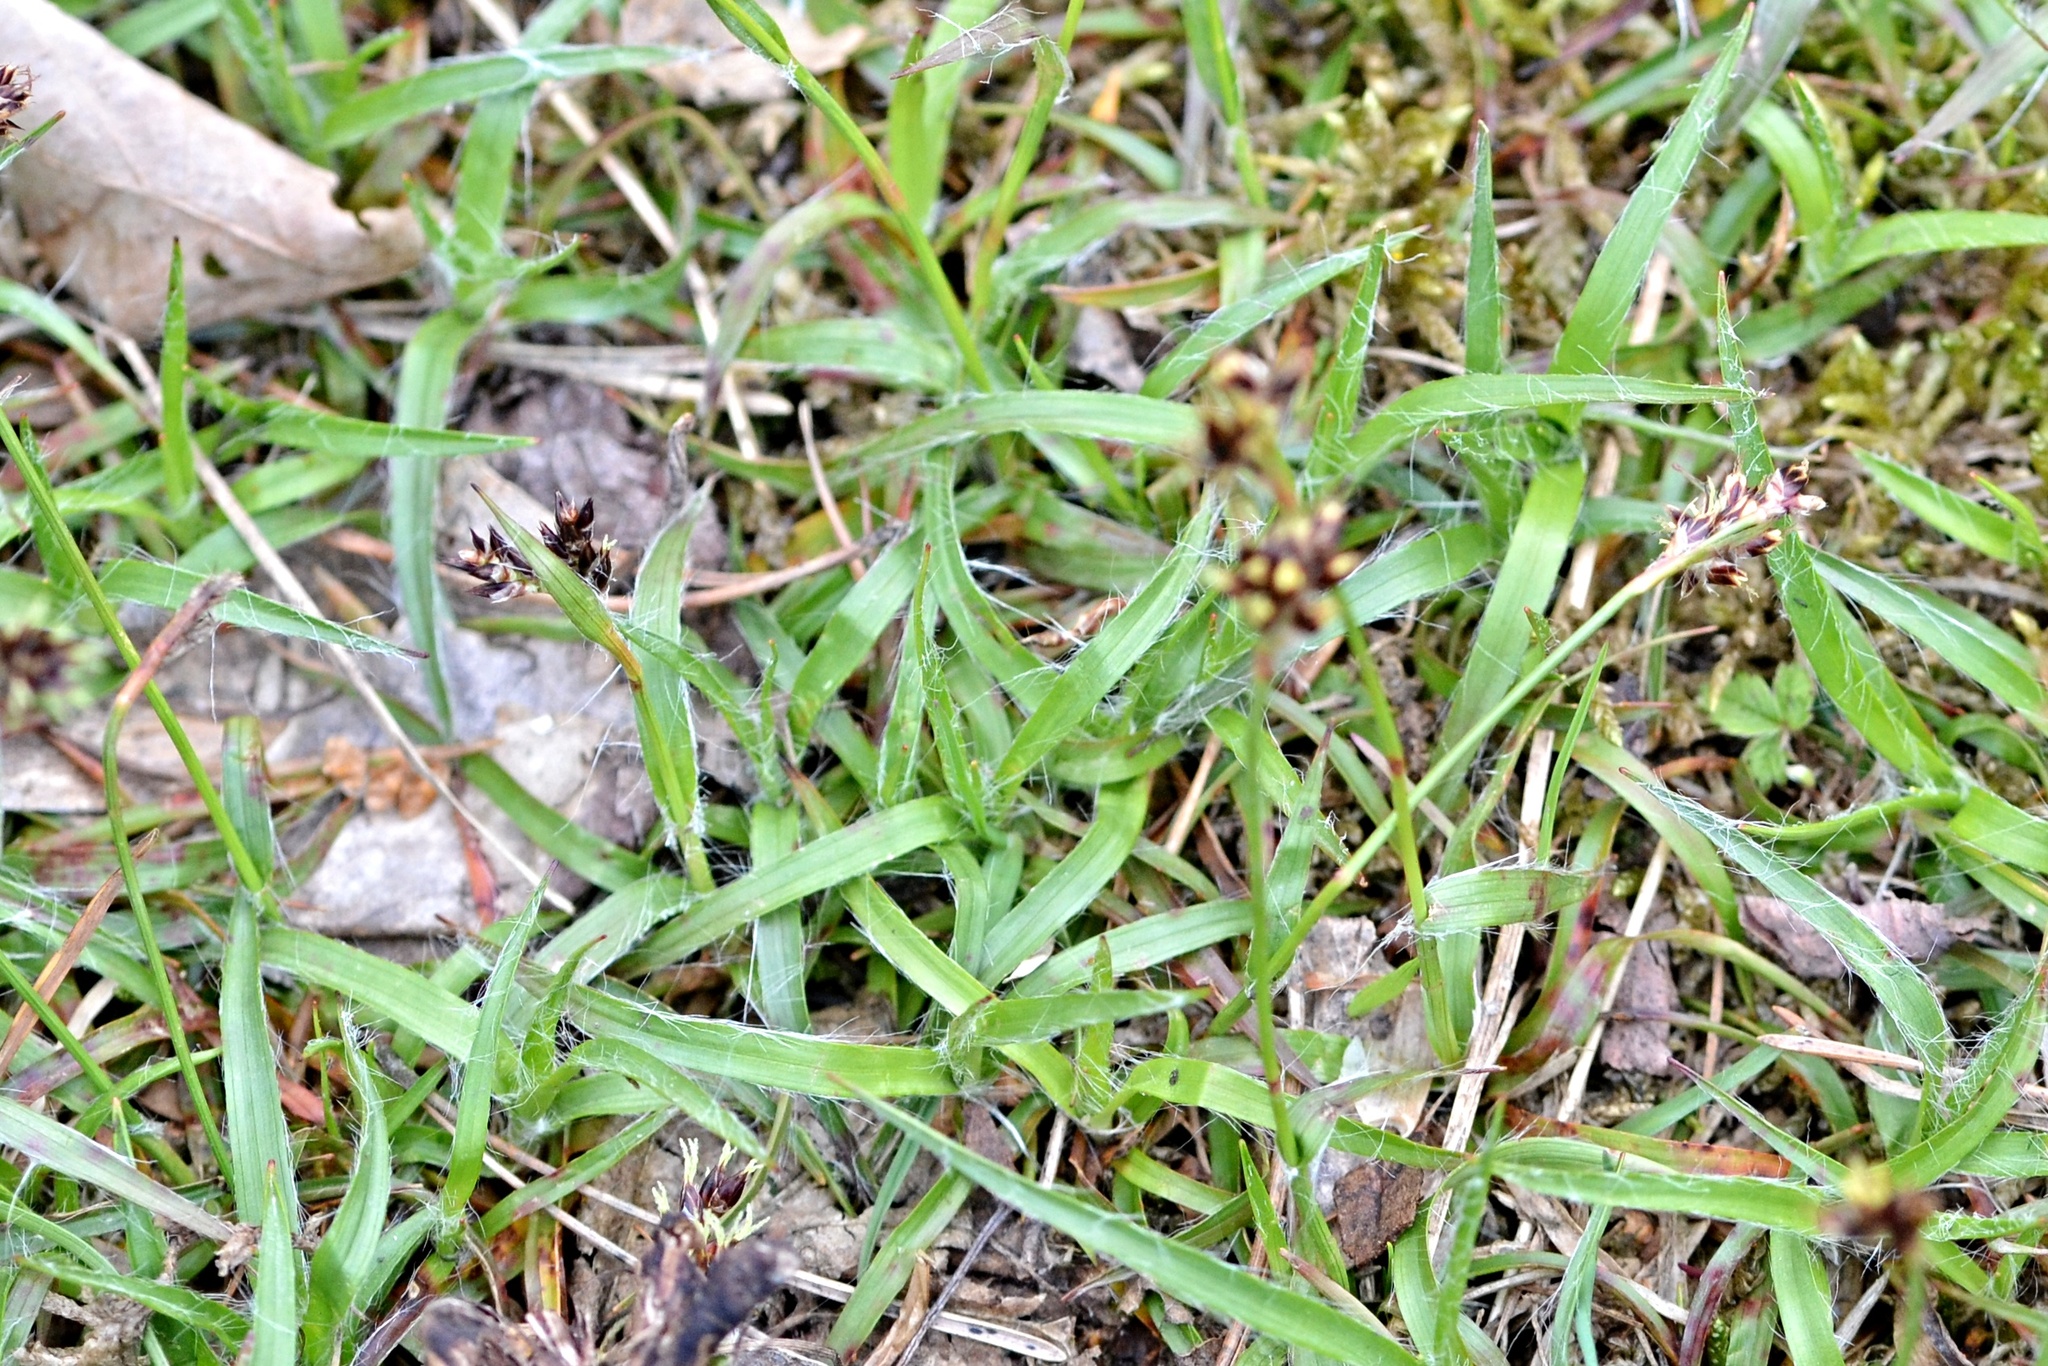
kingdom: Plantae
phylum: Tracheophyta
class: Liliopsida
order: Poales
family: Juncaceae
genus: Luzula
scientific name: Luzula campestris
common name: Field wood-rush
